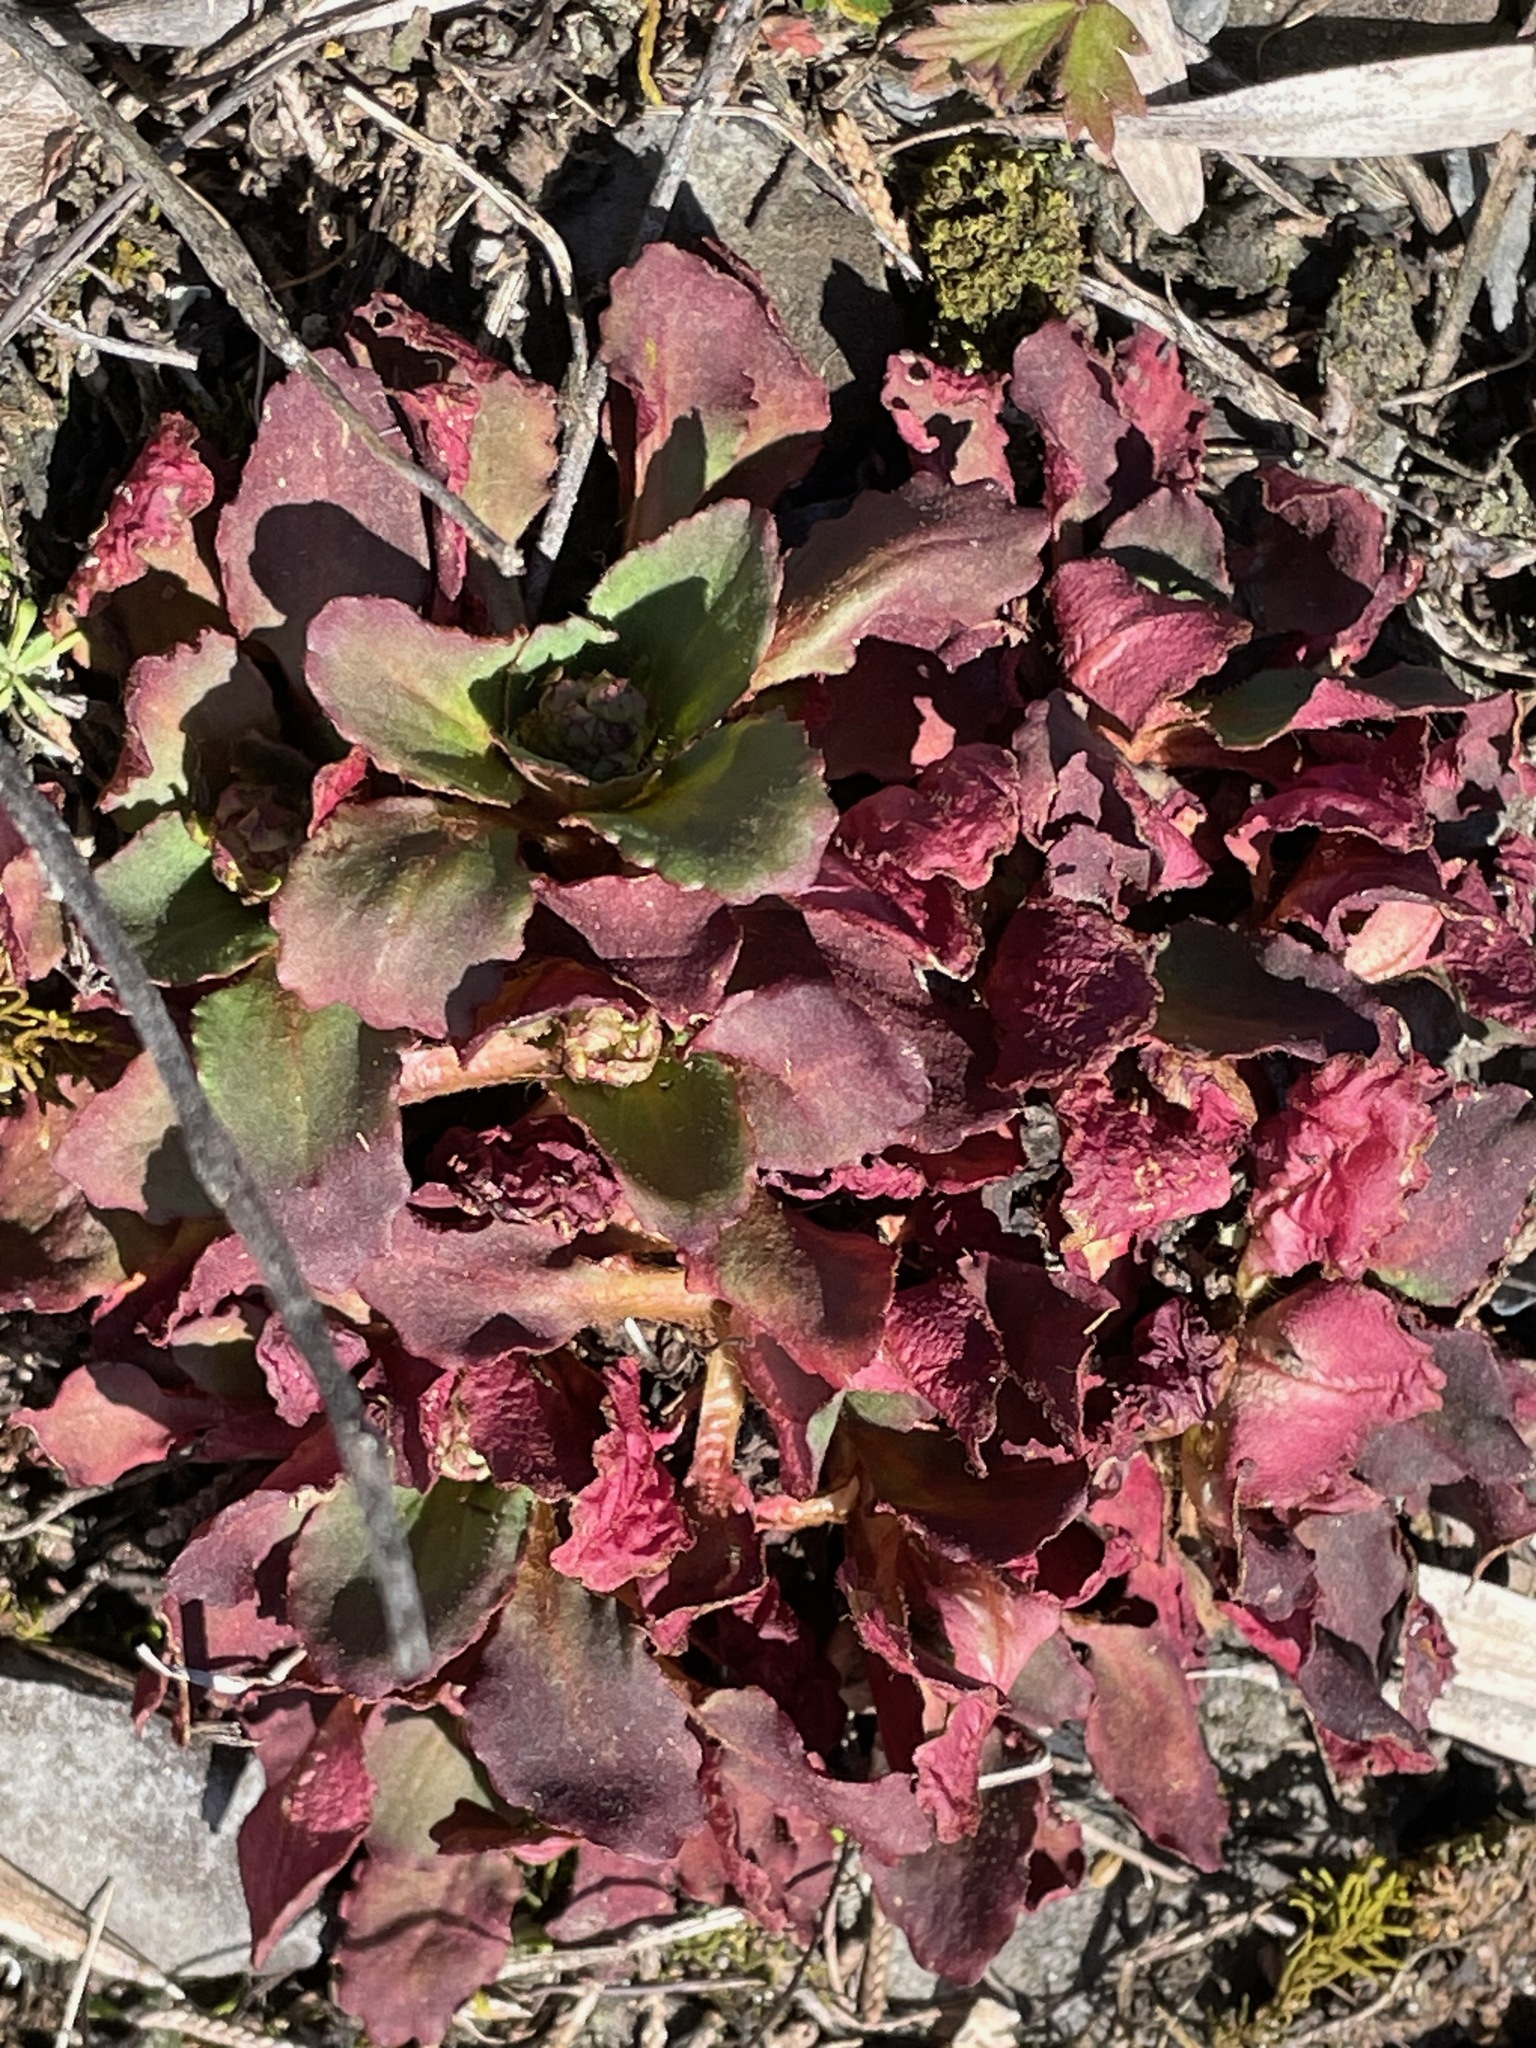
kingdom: Plantae
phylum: Tracheophyta
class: Magnoliopsida
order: Saxifragales
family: Saxifragaceae
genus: Micranthes
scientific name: Micranthes virginiensis
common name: Early saxifrage
